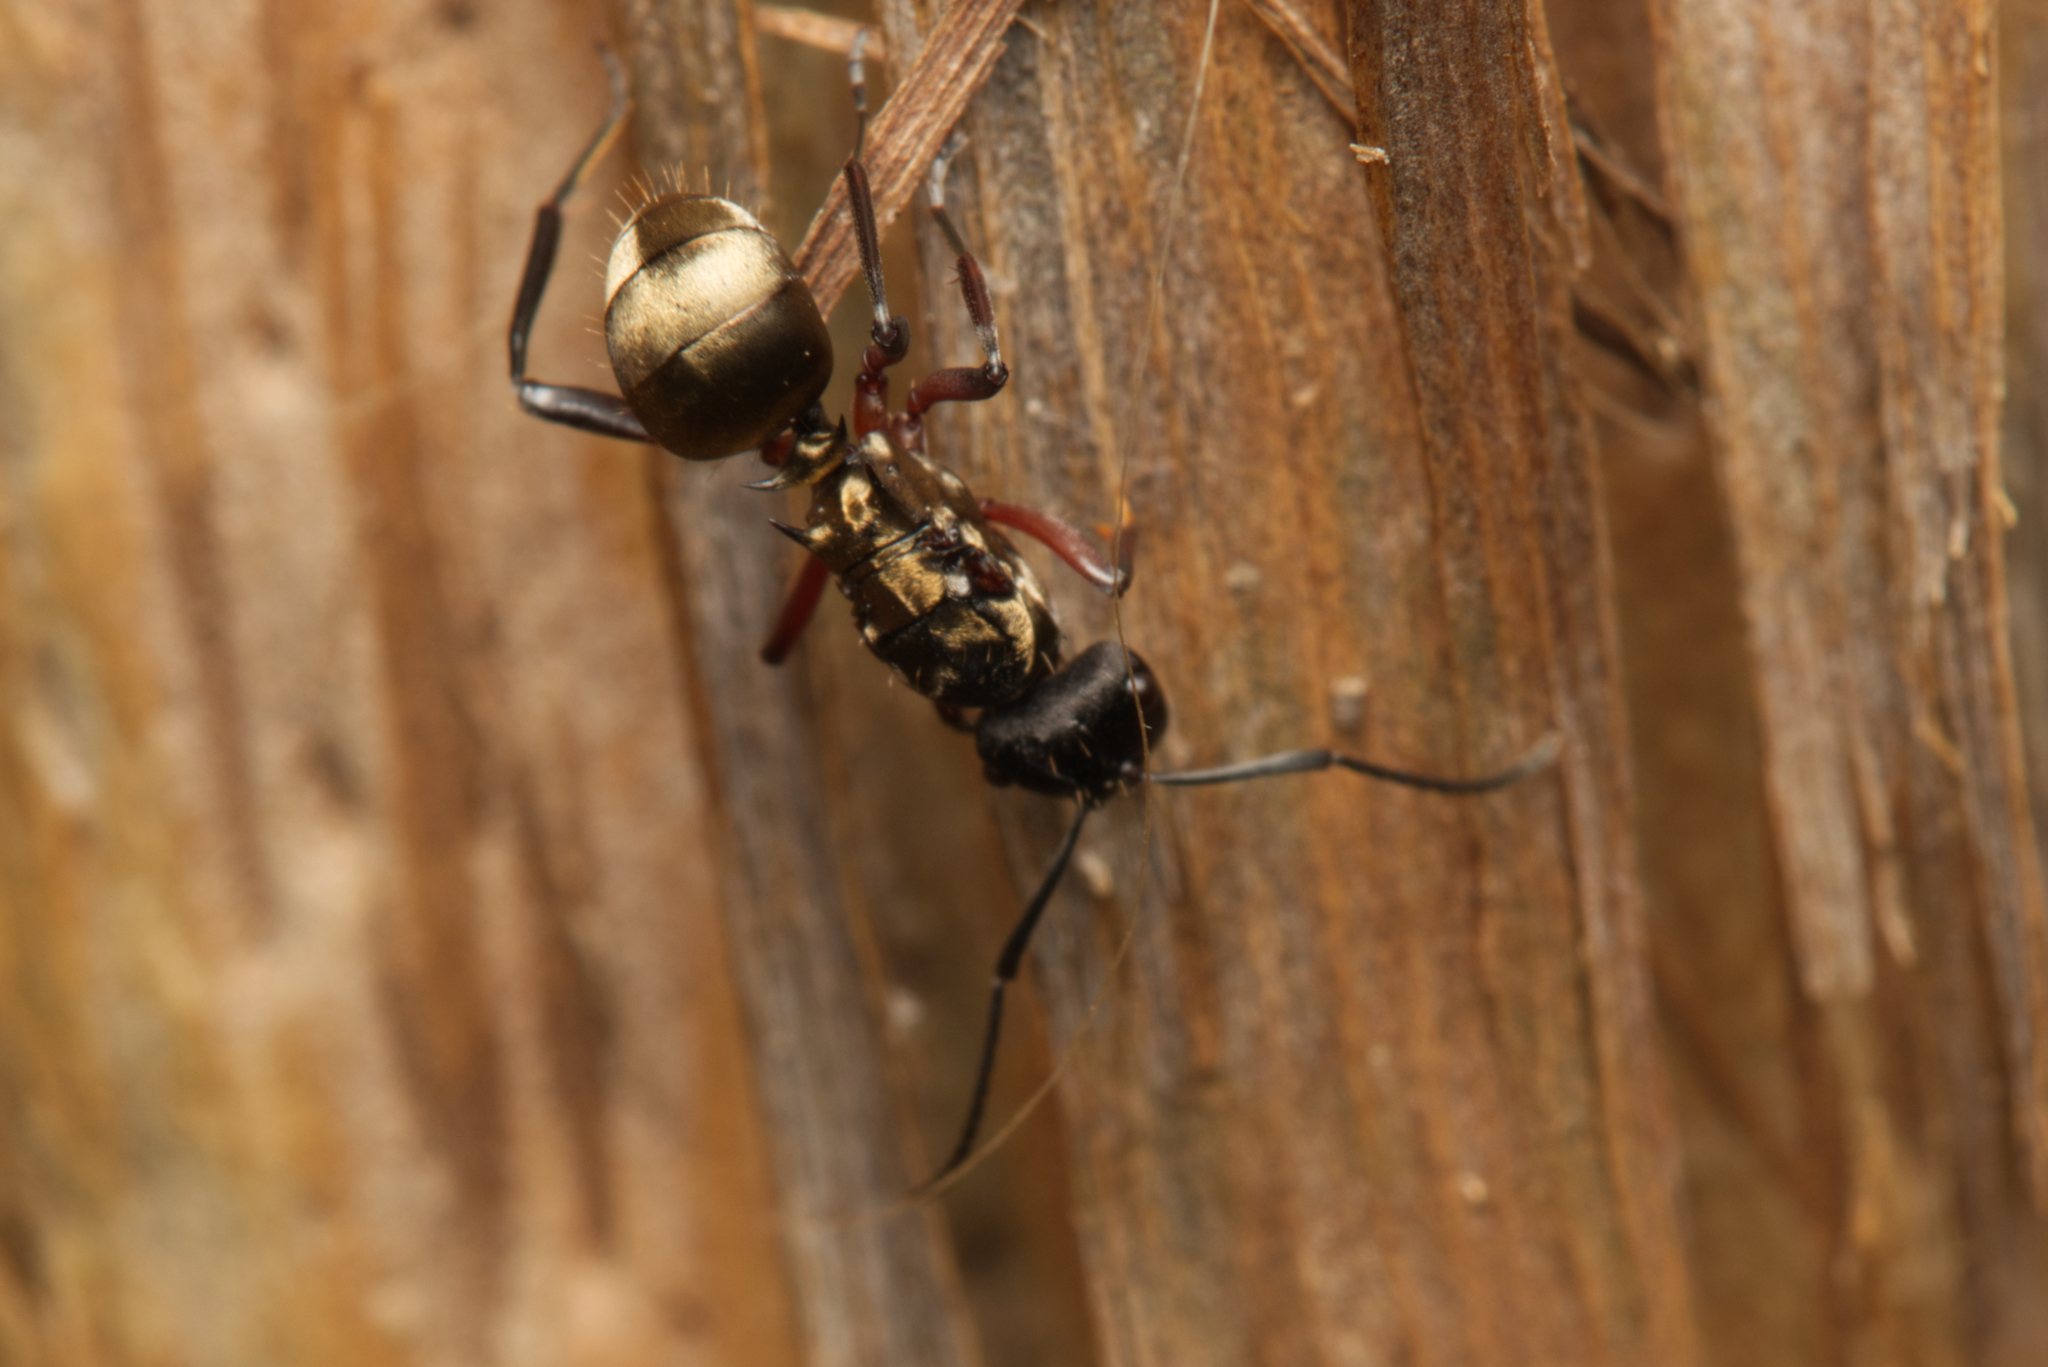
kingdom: Animalia
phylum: Arthropoda
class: Insecta
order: Hymenoptera
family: Formicidae
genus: Polyrhachis
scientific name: Polyrhachis rufifemur
